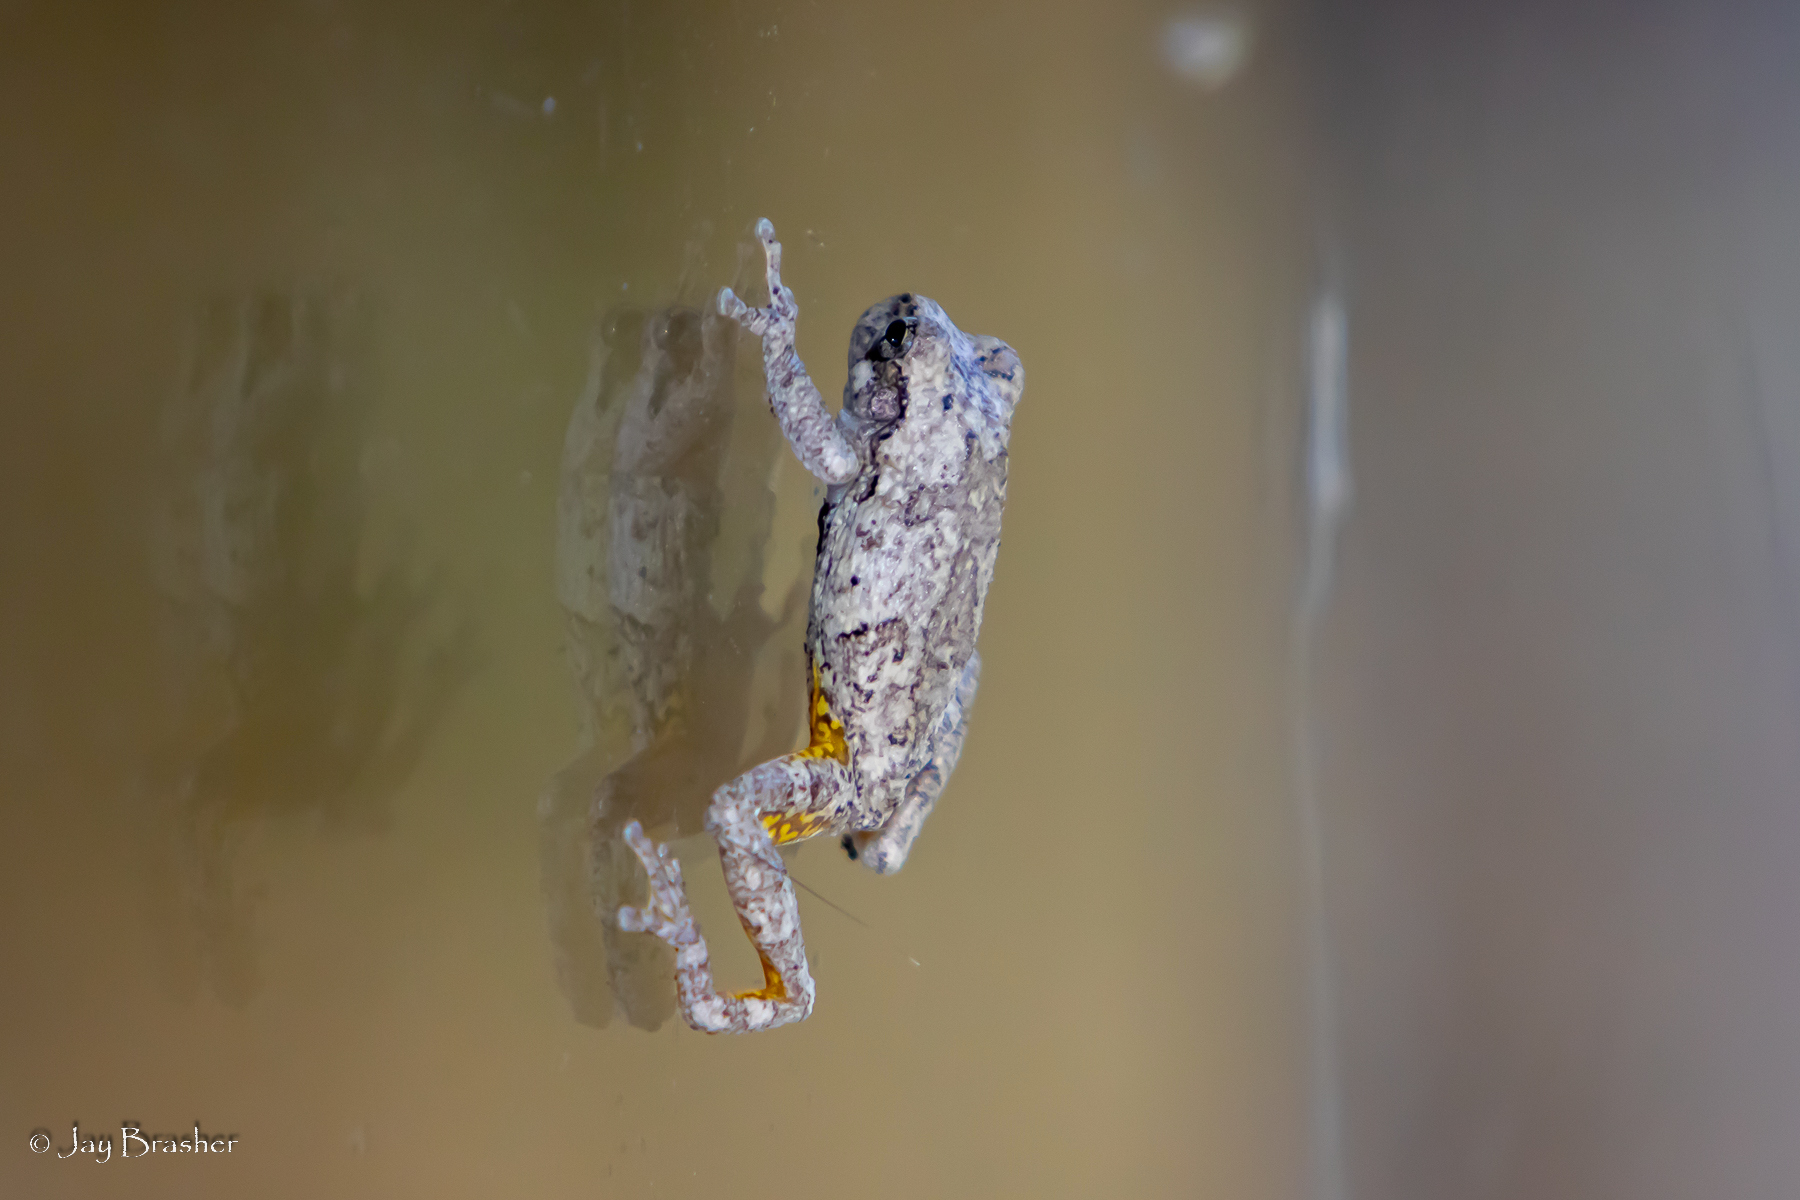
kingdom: Animalia
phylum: Chordata
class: Amphibia
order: Anura
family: Hylidae
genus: Dryophytes
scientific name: Dryophytes chrysoscelis
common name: Cope's gray treefrog
